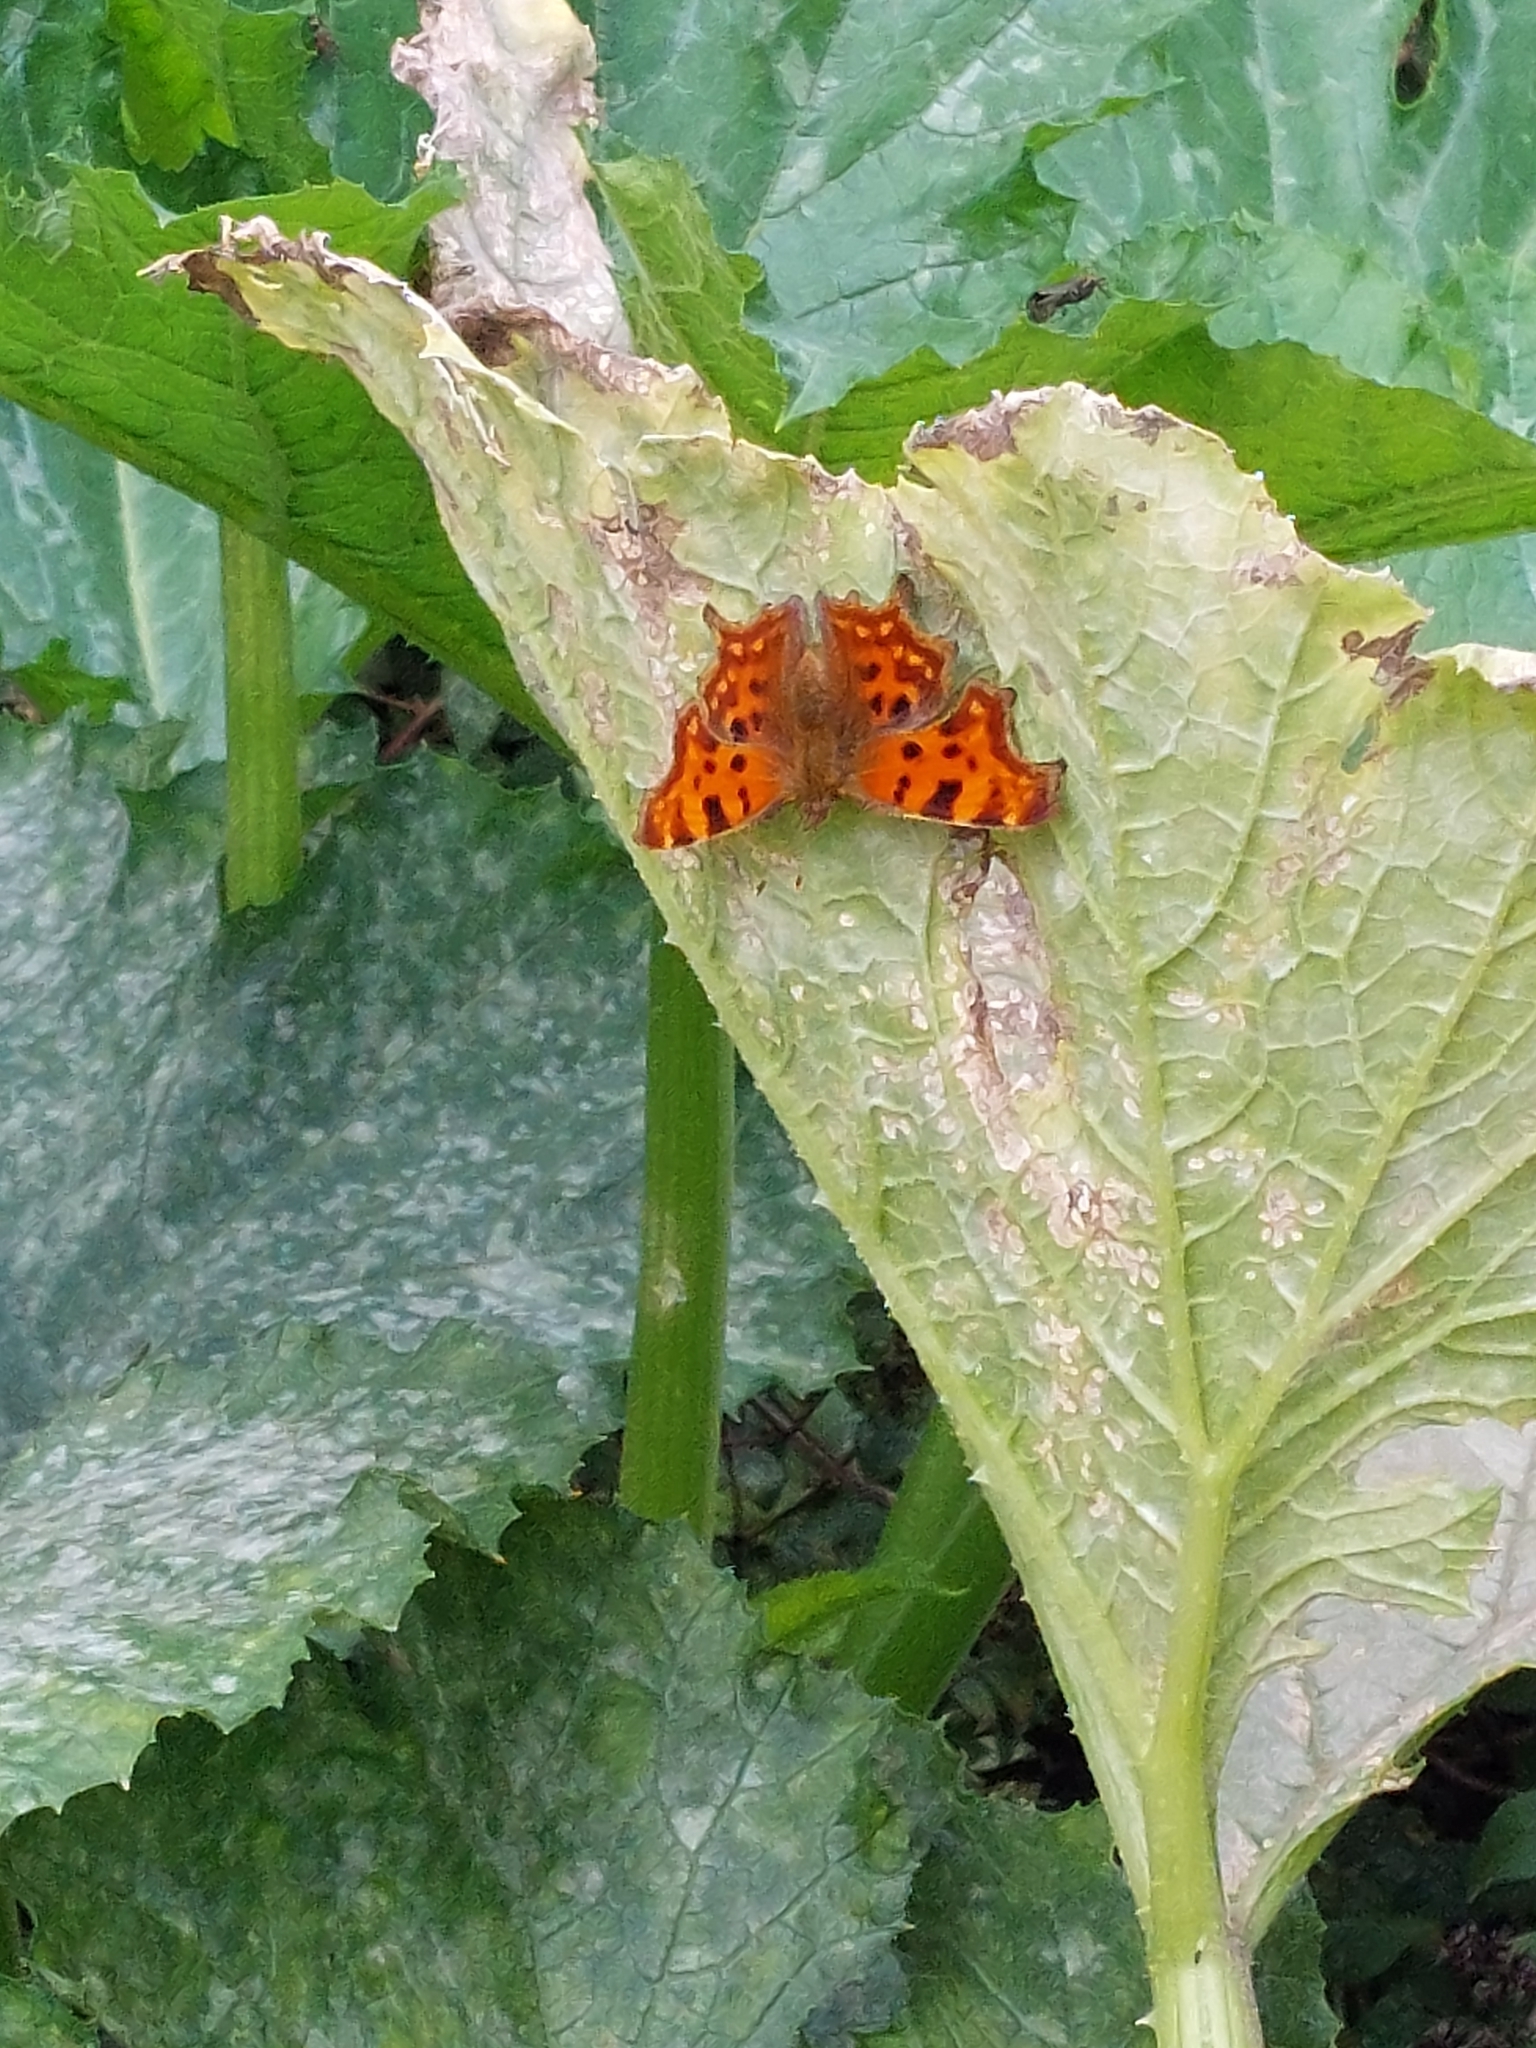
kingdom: Animalia
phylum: Arthropoda
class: Insecta
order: Lepidoptera
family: Nymphalidae
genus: Polygonia
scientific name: Polygonia c-album
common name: Comma
